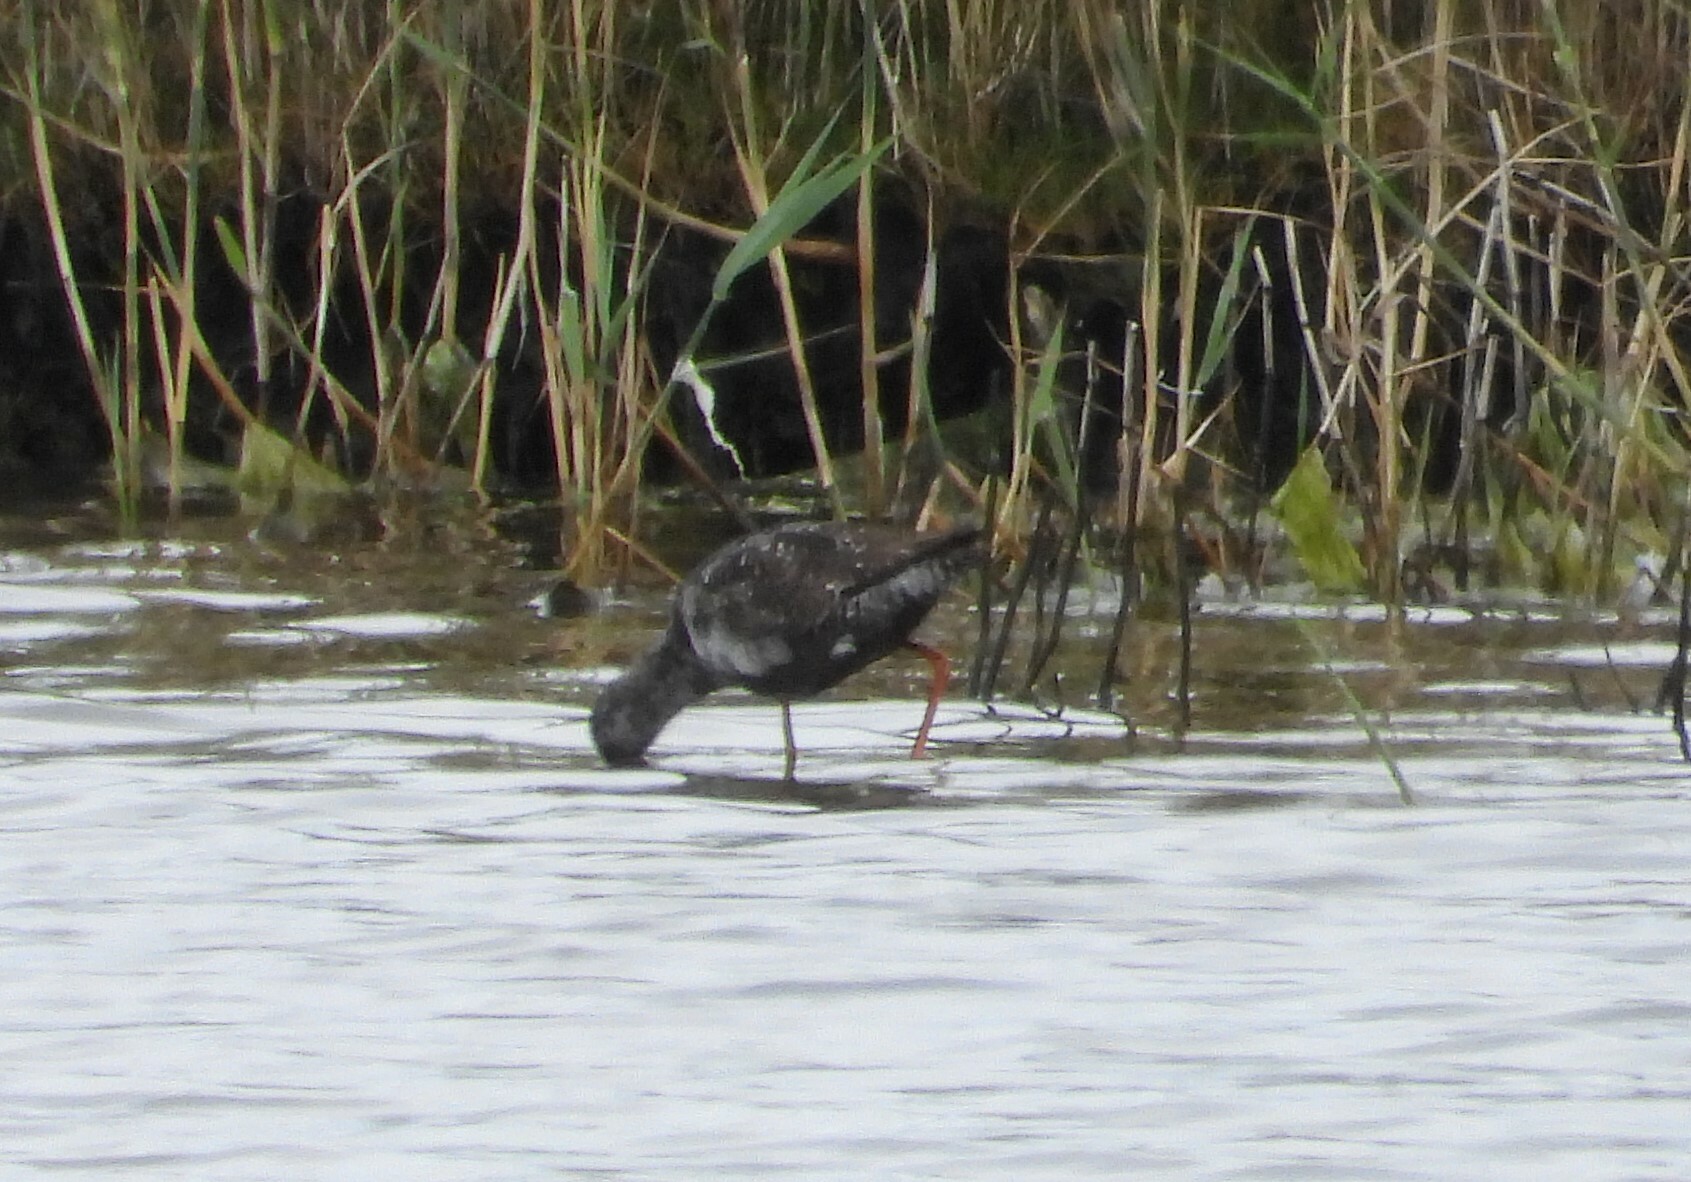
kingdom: Animalia
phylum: Chordata
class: Aves
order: Charadriiformes
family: Scolopacidae
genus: Tringa
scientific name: Tringa erythropus
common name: Spotted redshank
